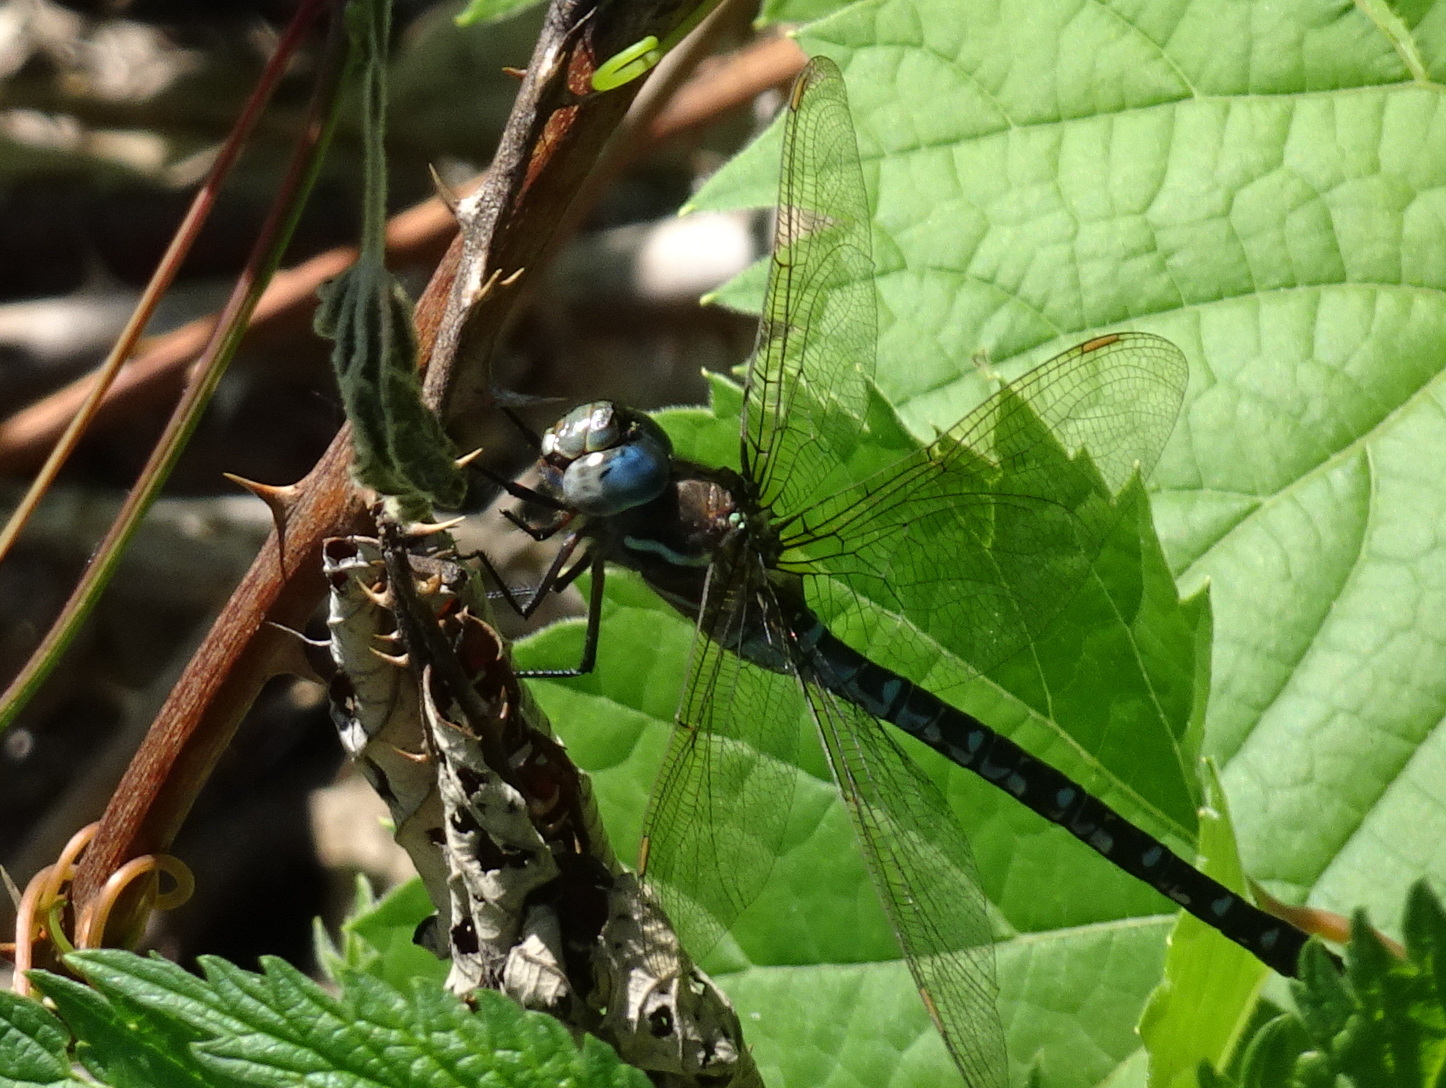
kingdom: Animalia
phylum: Arthropoda
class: Insecta
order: Odonata
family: Aeshnidae
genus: Rhionaeschna
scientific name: Rhionaeschna mutata
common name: Spatterdock darner
